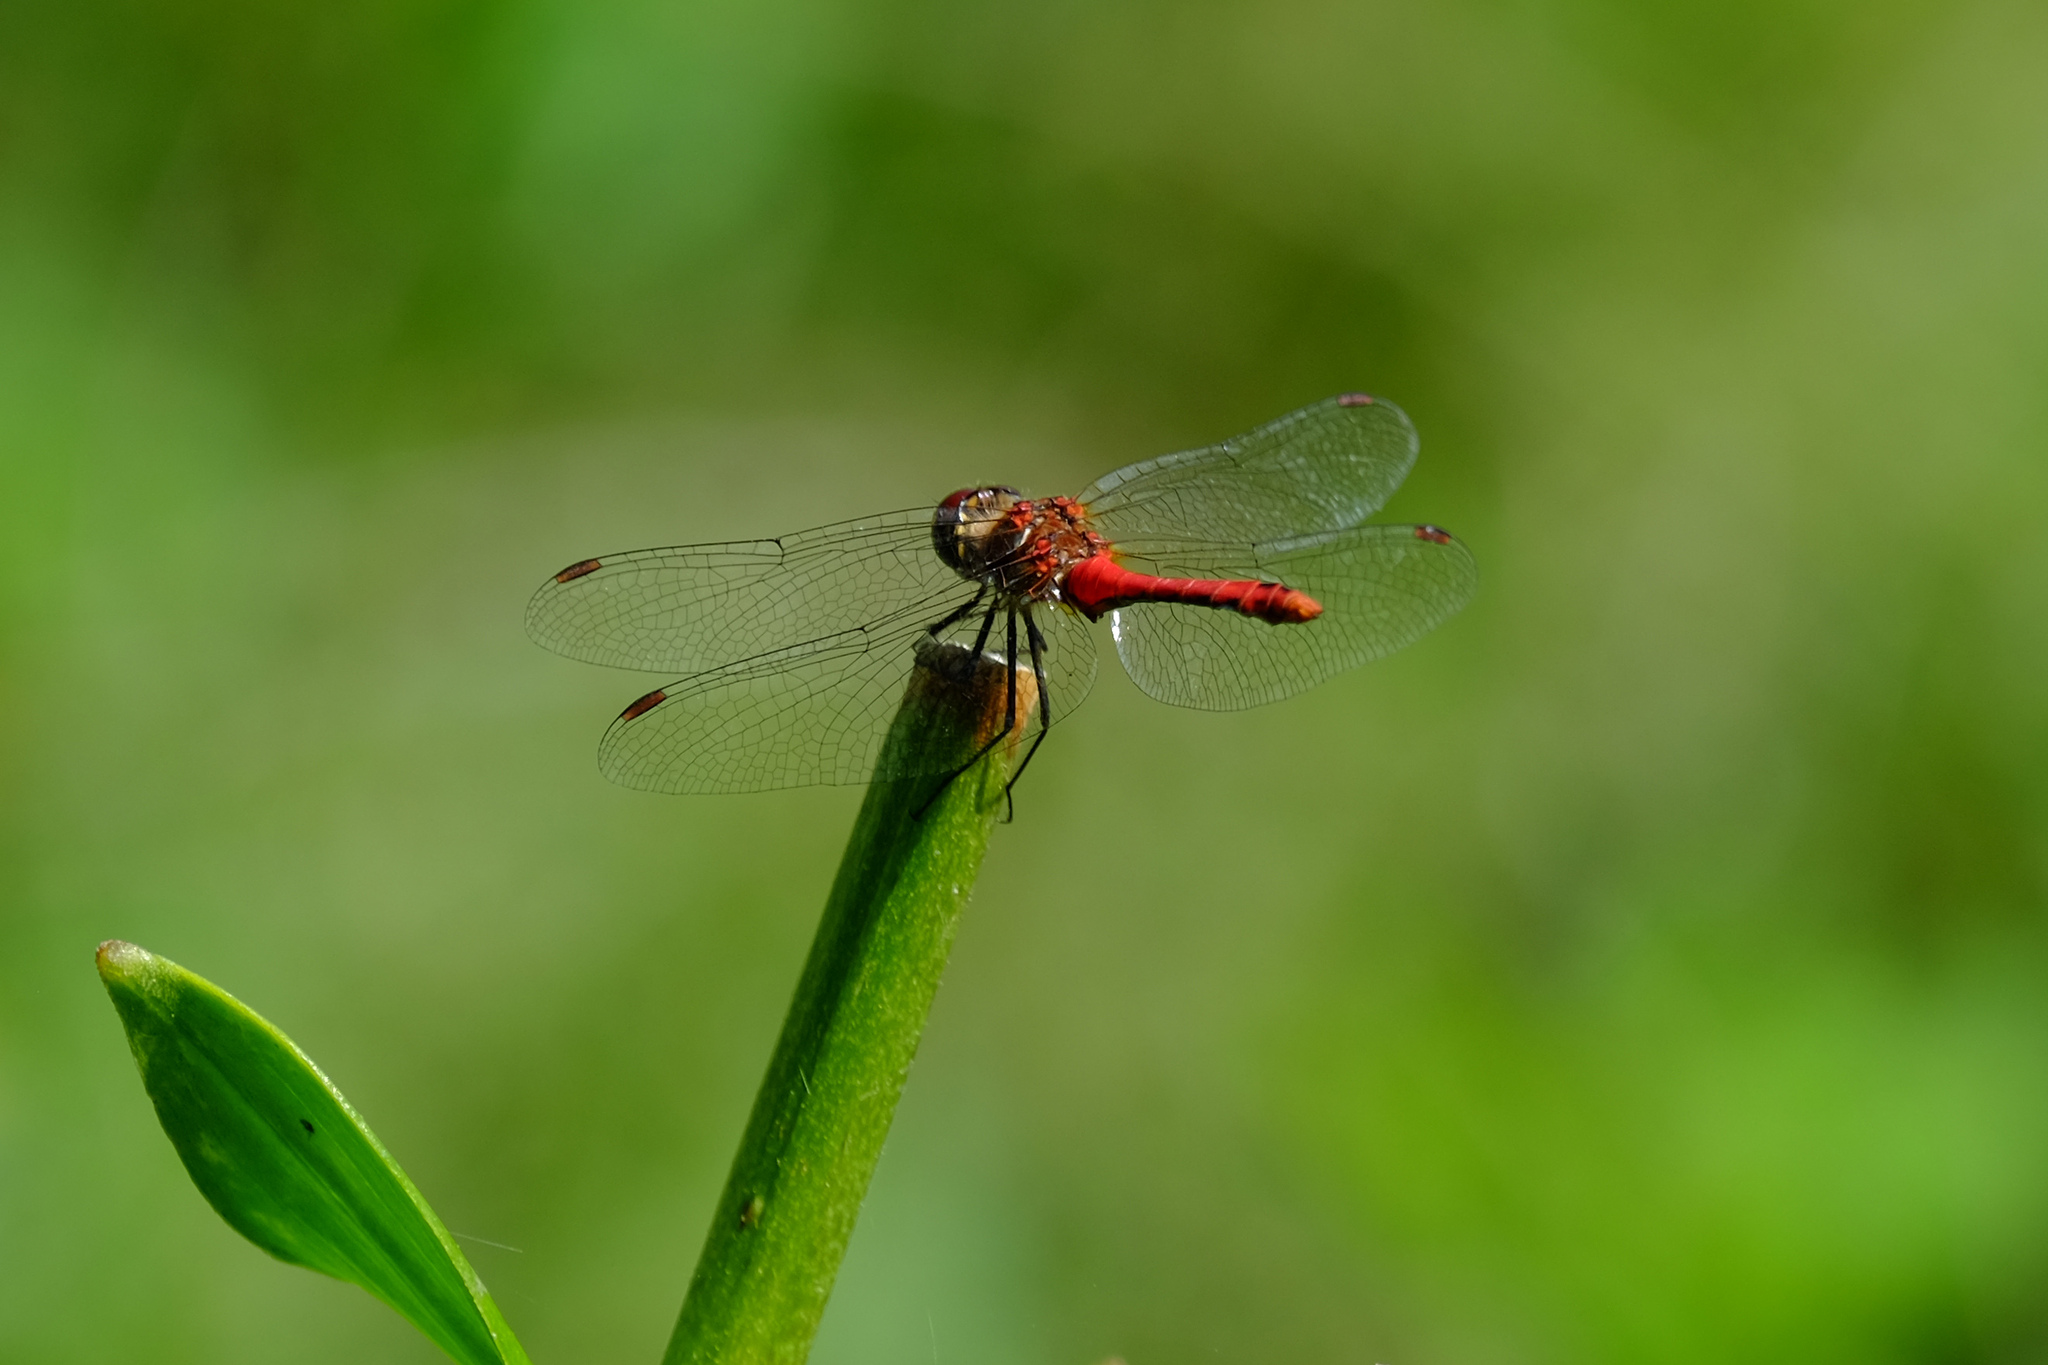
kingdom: Animalia
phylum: Arthropoda
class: Insecta
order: Odonata
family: Libellulidae
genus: Sympetrum
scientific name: Sympetrum sanguineum
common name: Ruddy darter
